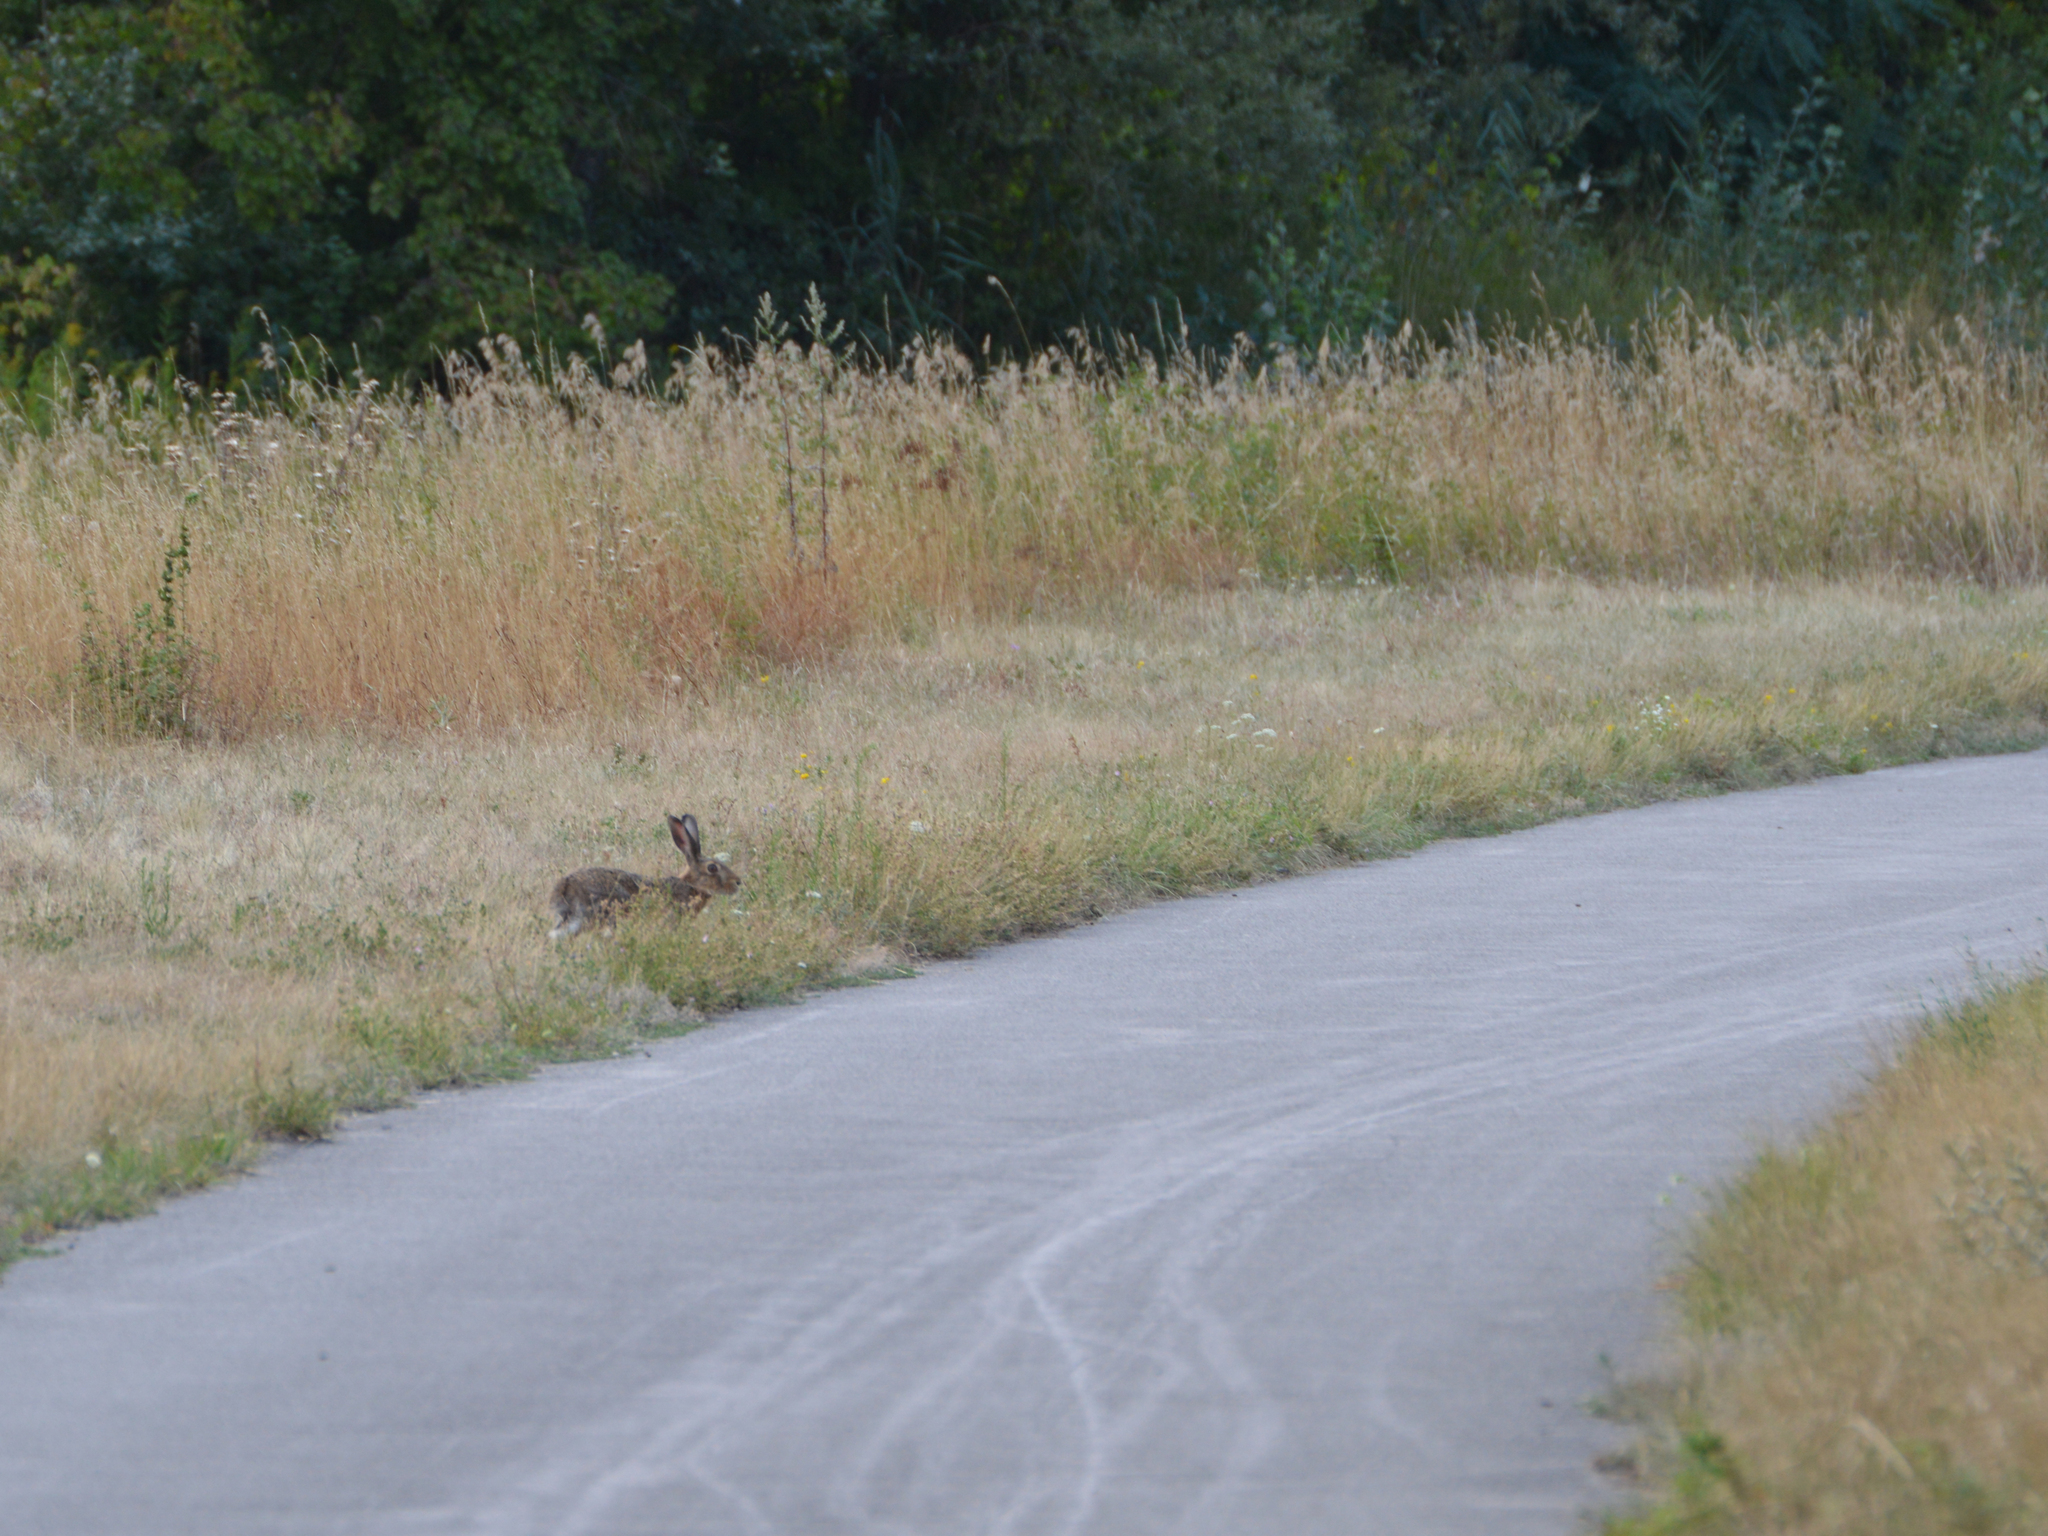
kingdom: Animalia
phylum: Chordata
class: Mammalia
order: Lagomorpha
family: Leporidae
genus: Lepus
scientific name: Lepus europaeus
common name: European hare
